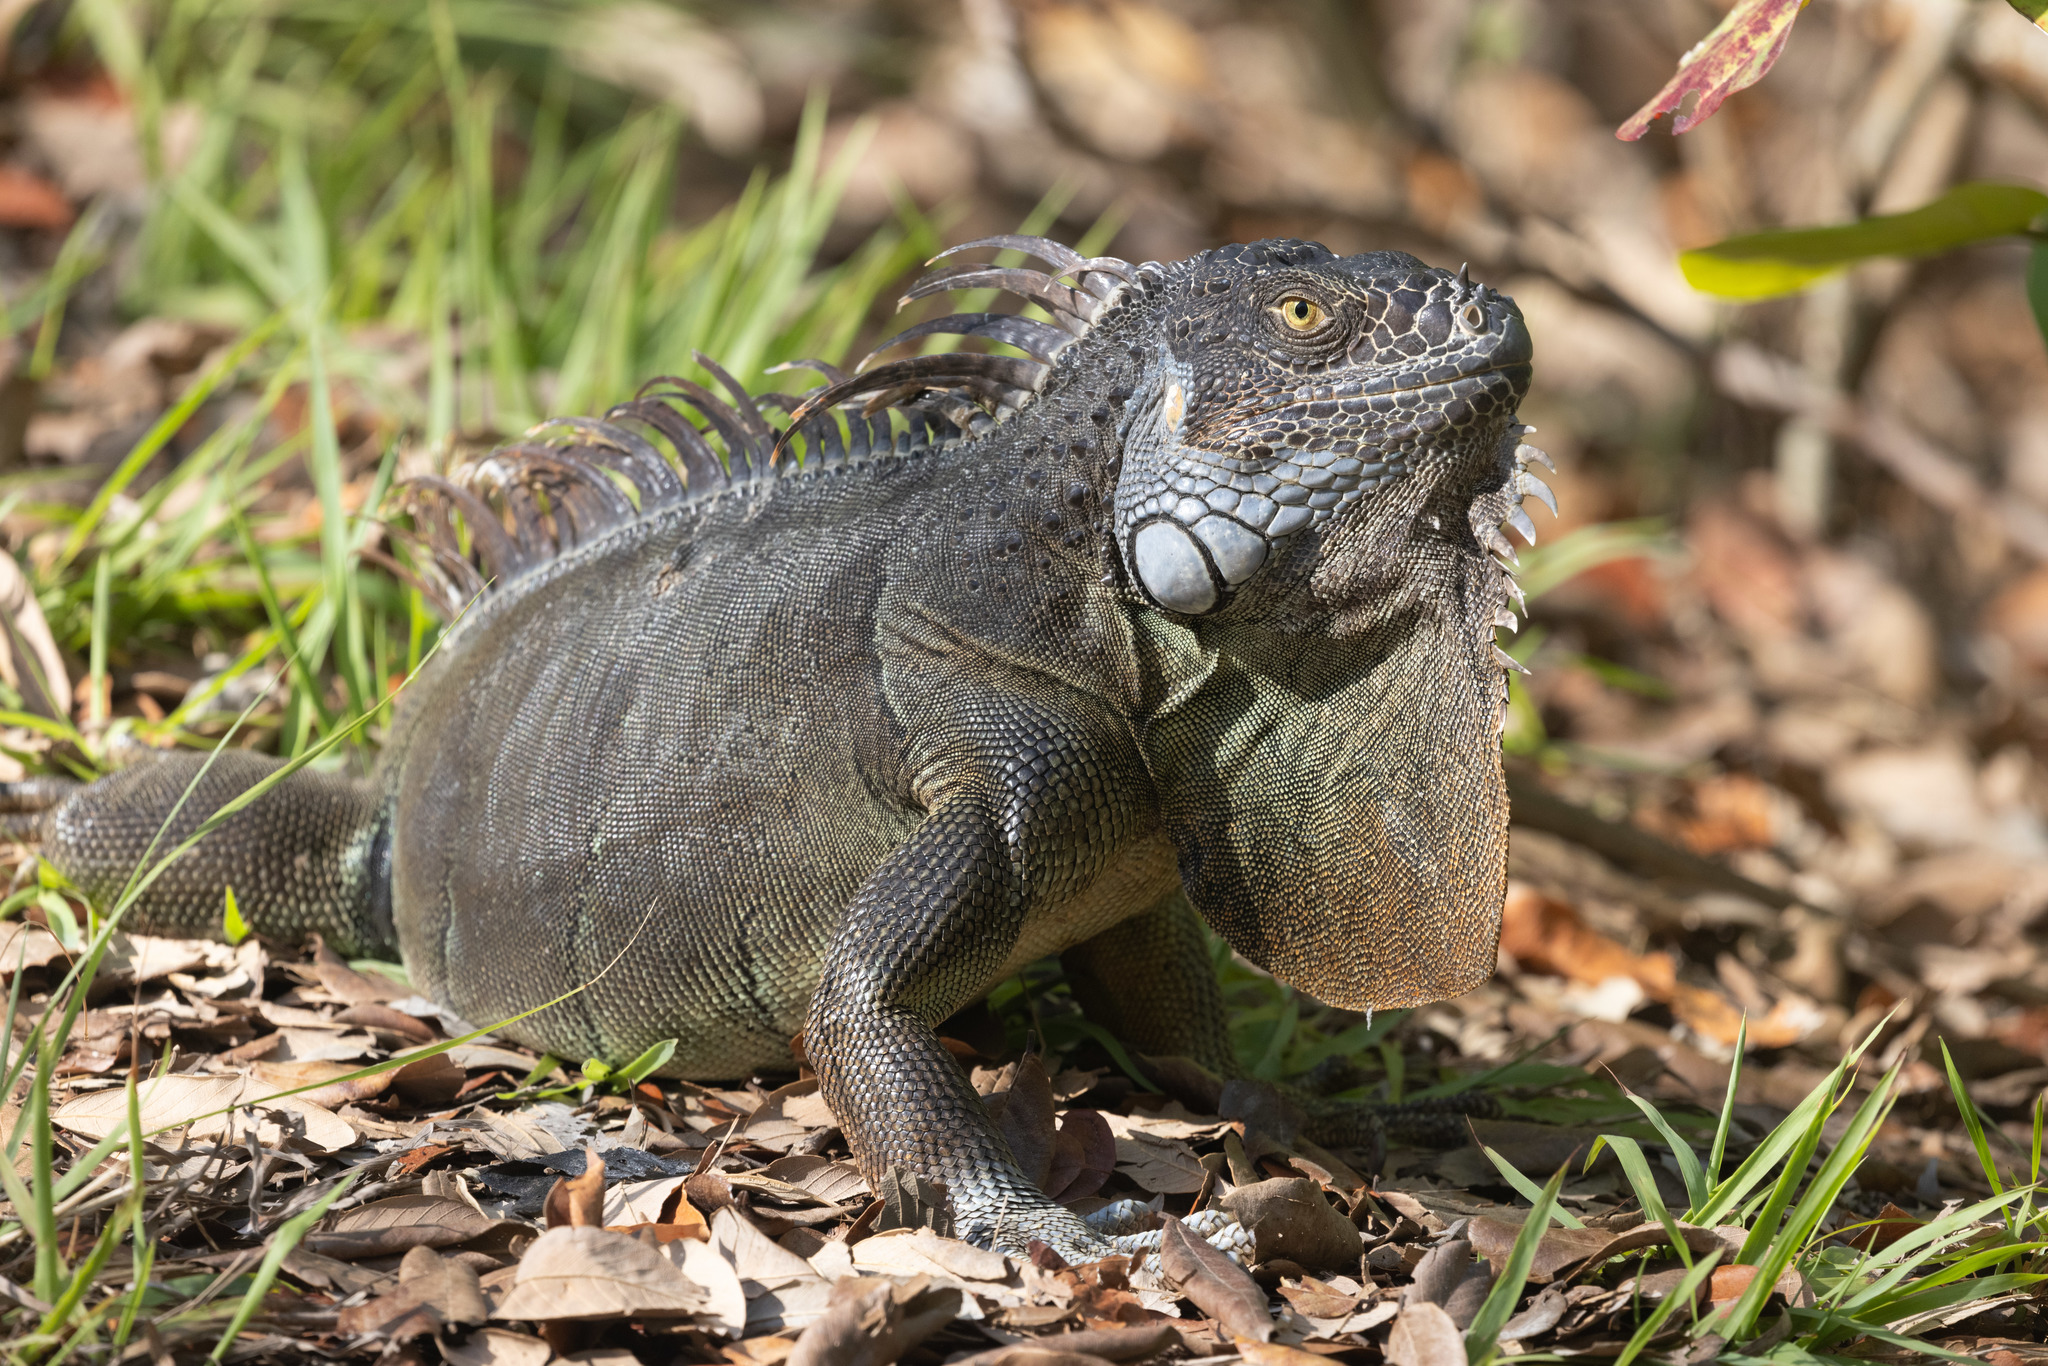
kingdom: Animalia
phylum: Chordata
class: Squamata
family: Iguanidae
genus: Iguana
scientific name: Iguana iguana
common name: Green iguana
